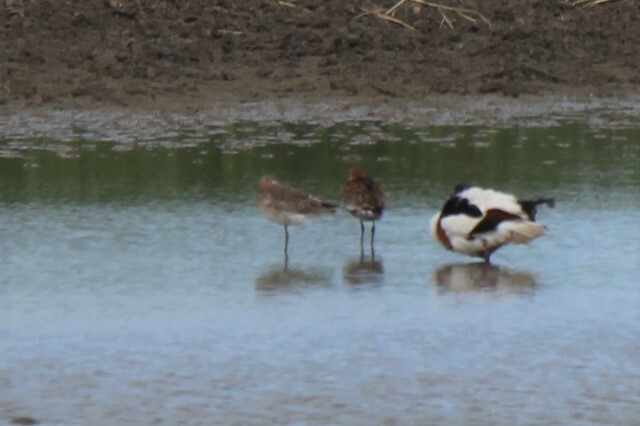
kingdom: Animalia
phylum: Chordata
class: Aves
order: Charadriiformes
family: Scolopacidae
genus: Limosa
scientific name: Limosa limosa
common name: Black-tailed godwit
